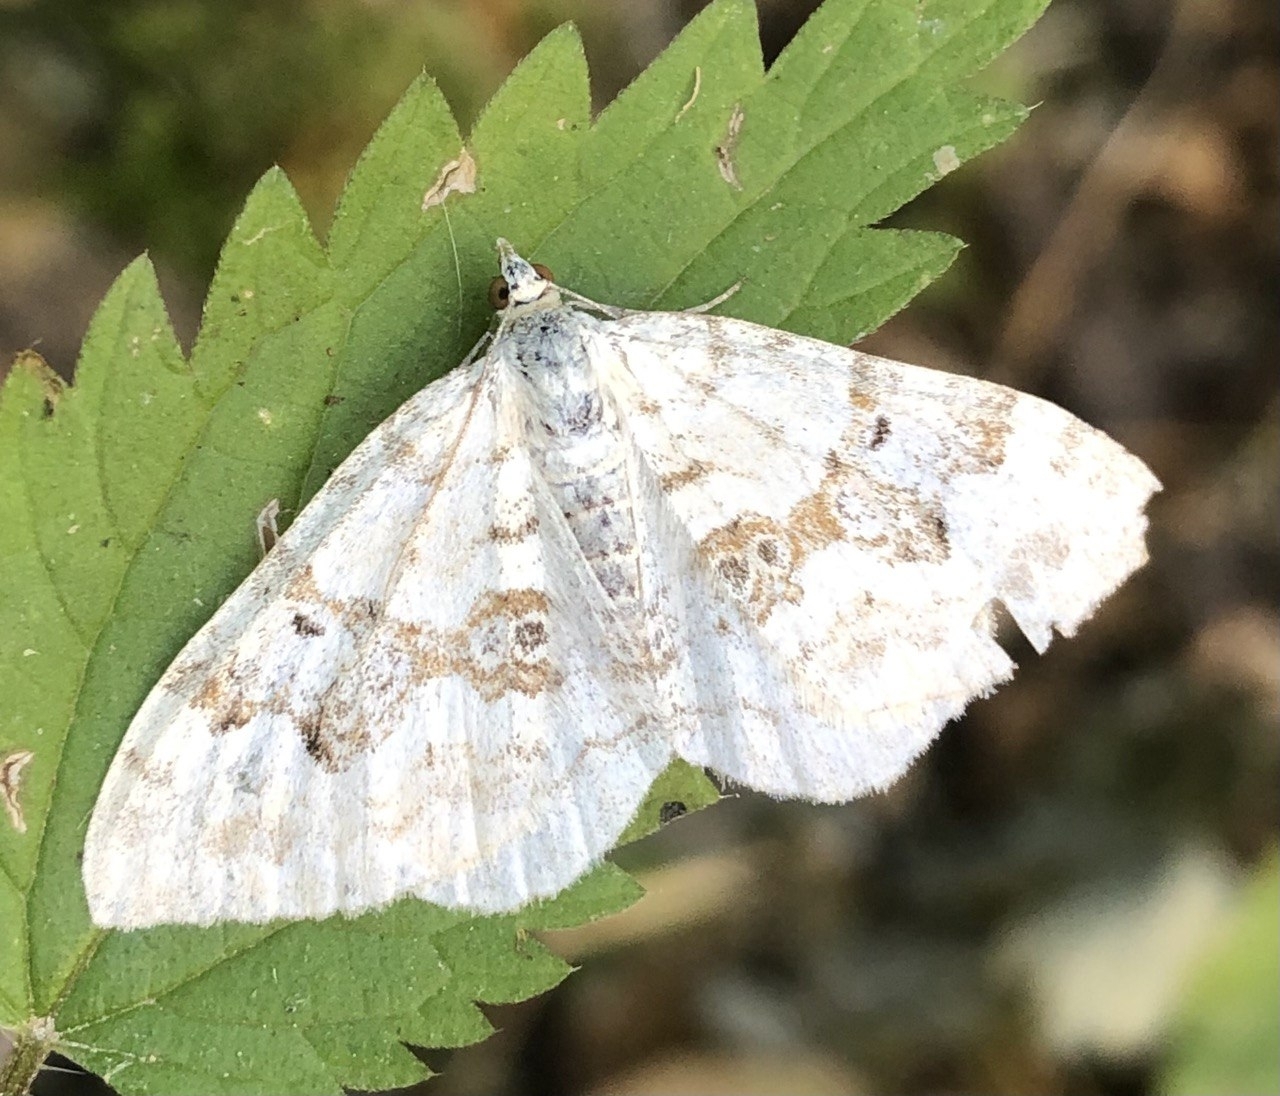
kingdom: Animalia
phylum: Arthropoda
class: Insecta
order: Lepidoptera
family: Geometridae
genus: Xanthorhoe
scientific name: Xanthorhoe montanata
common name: Silver-ground carpet
